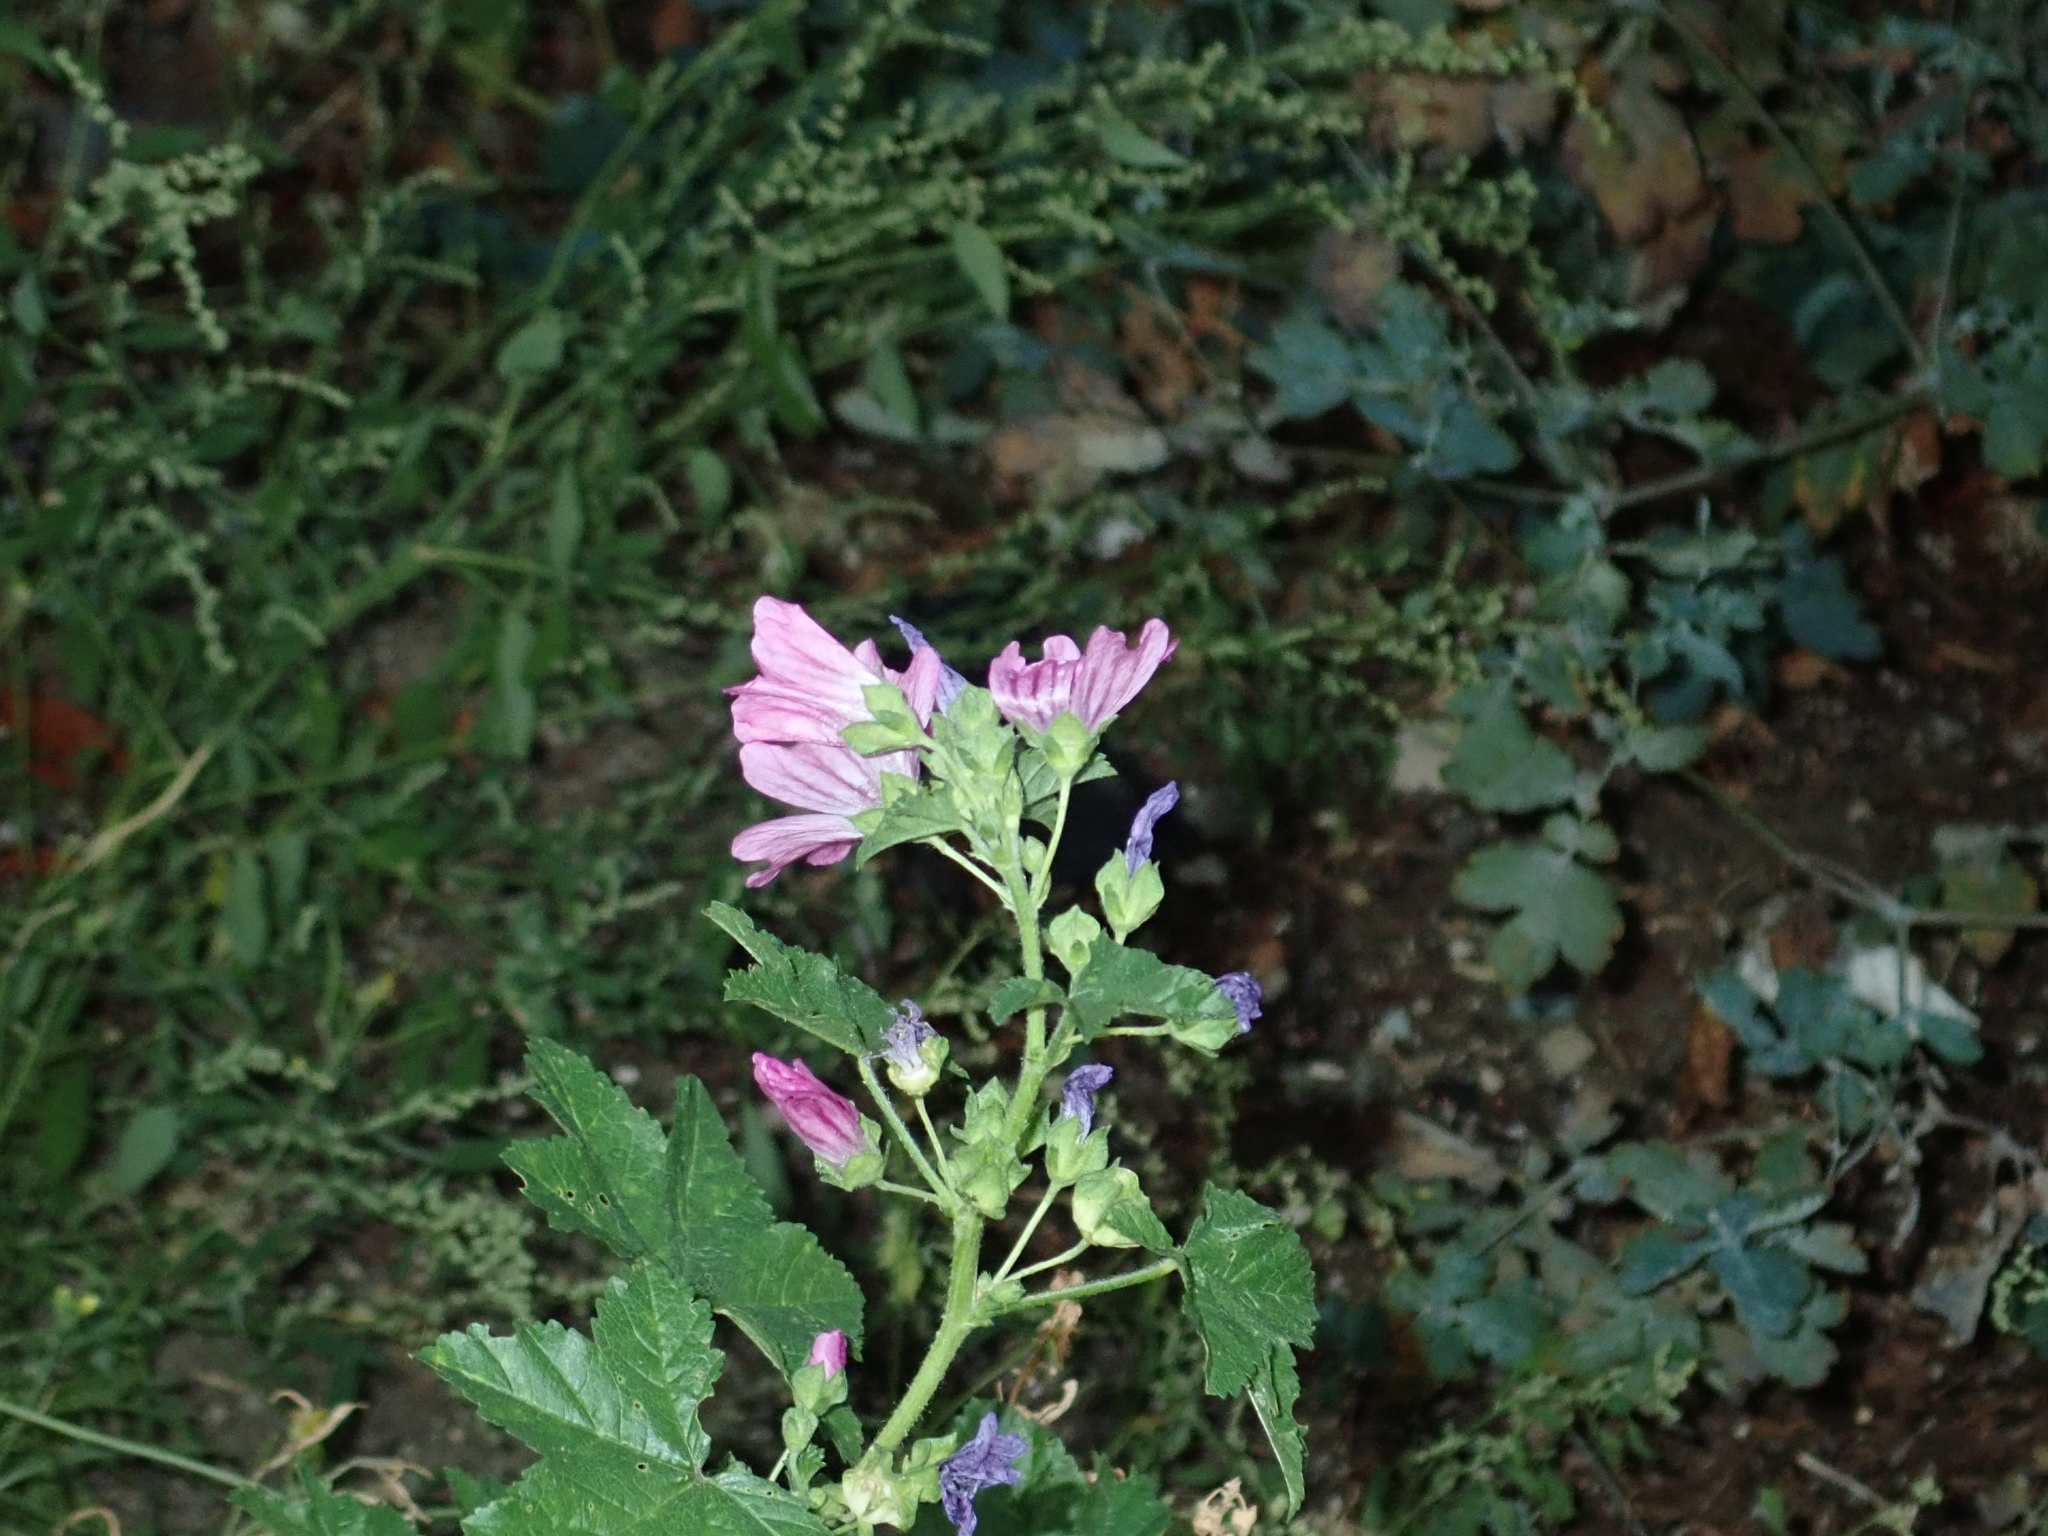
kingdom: Plantae
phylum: Tracheophyta
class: Magnoliopsida
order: Malvales
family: Malvaceae
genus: Malva
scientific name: Malva sylvestris
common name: Common mallow
